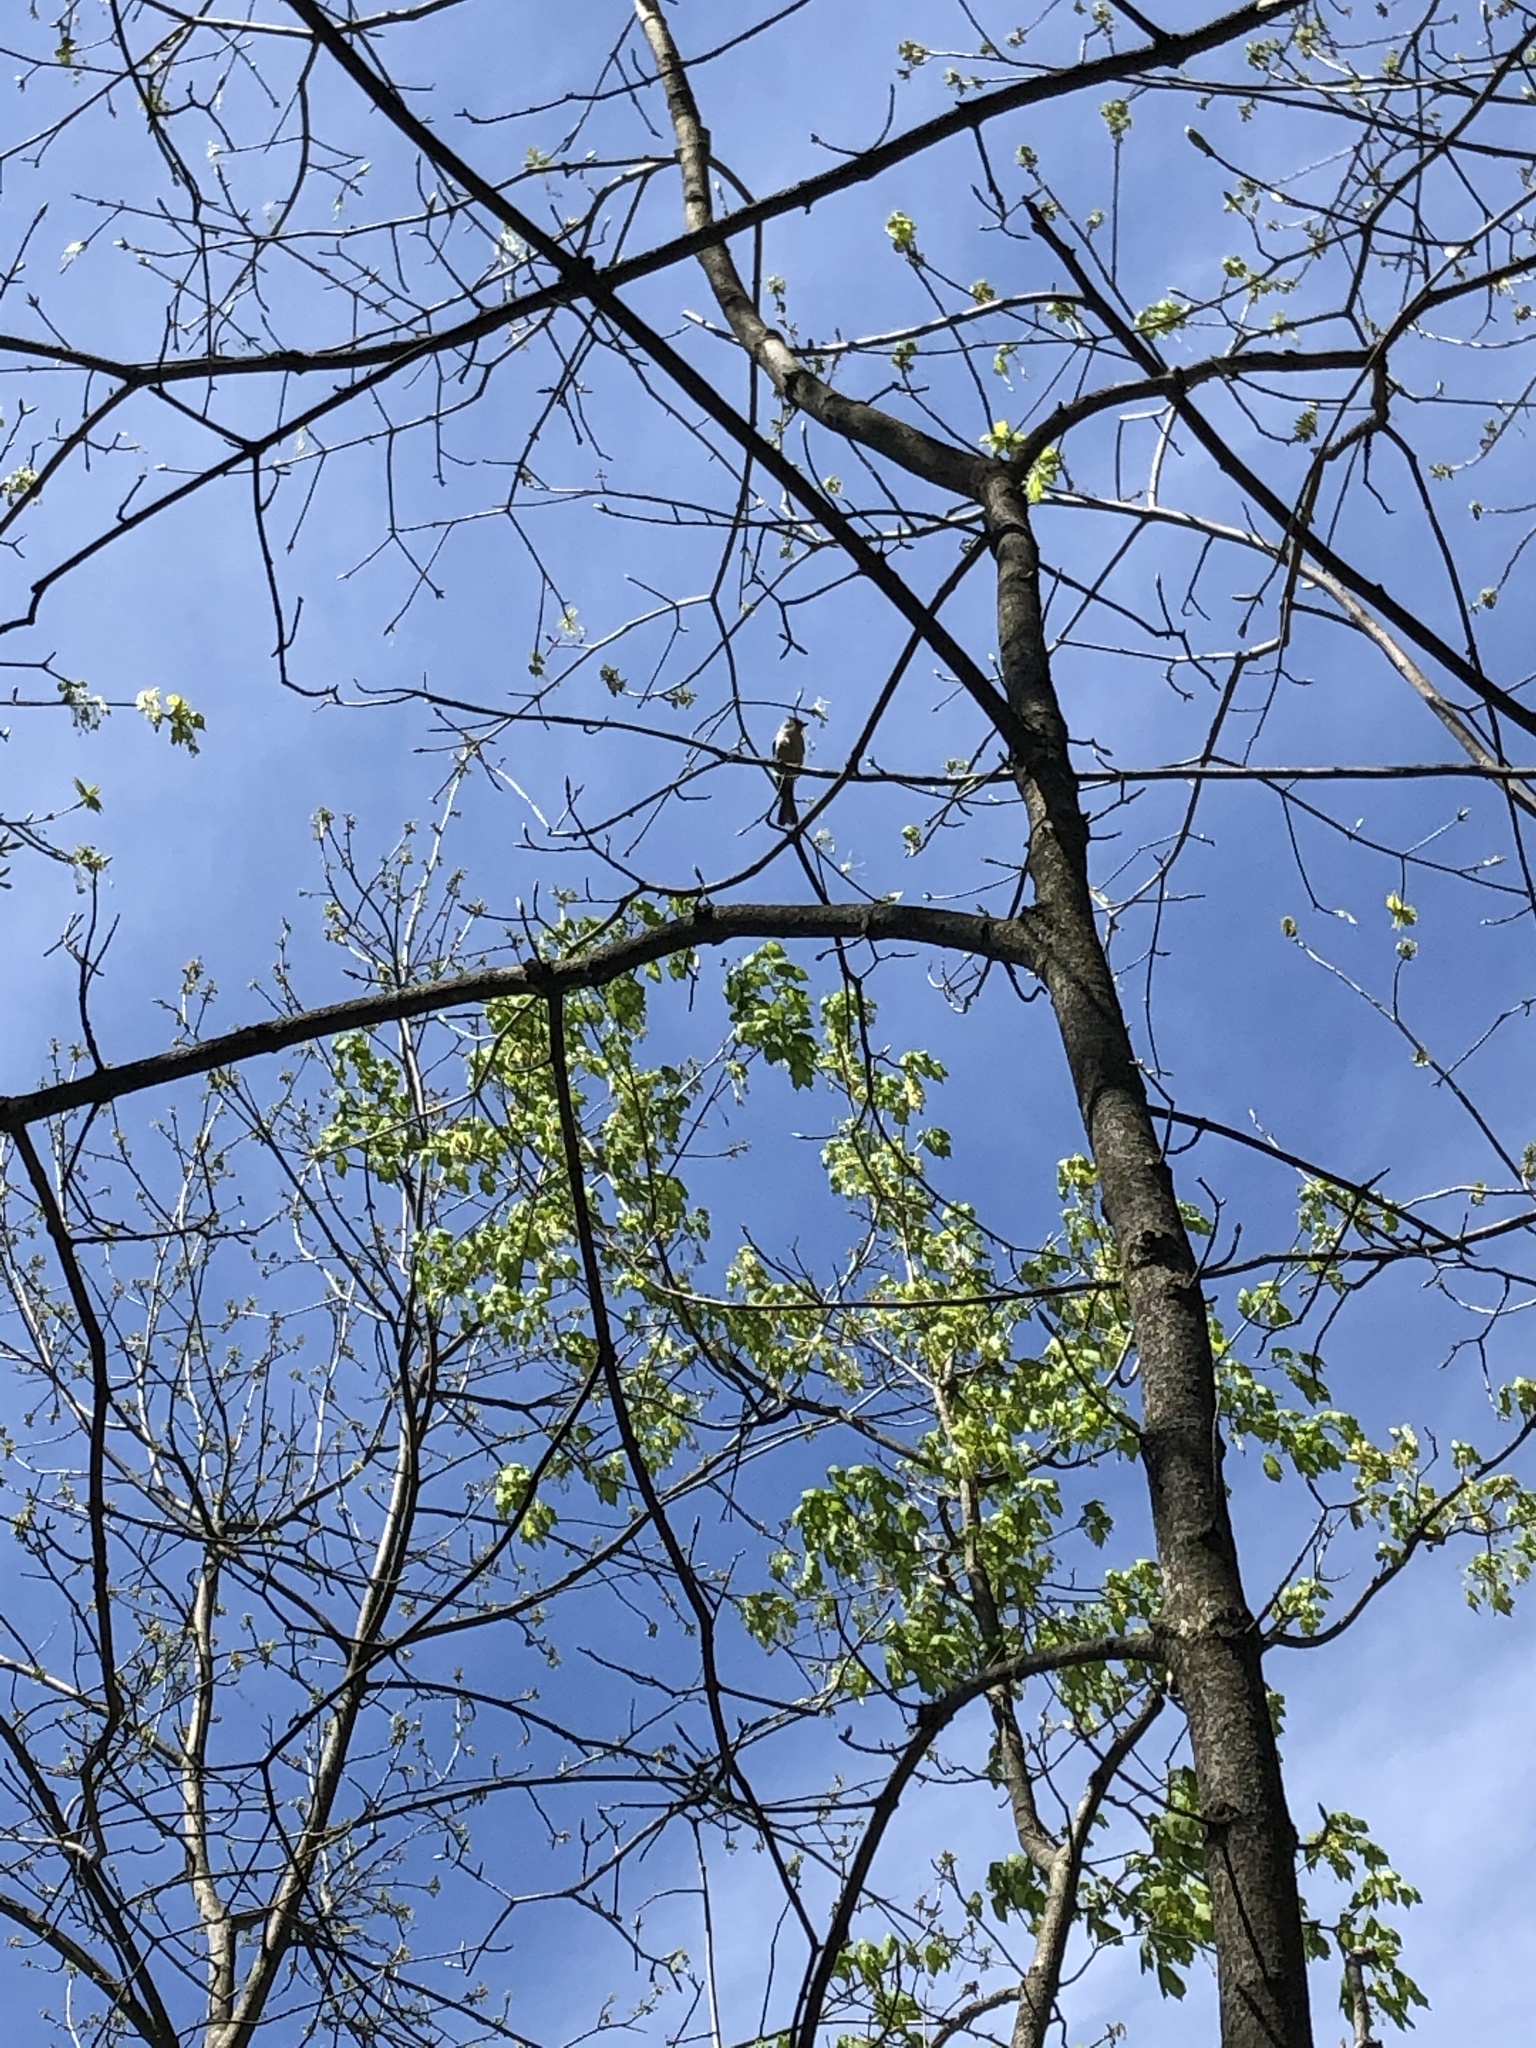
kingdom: Animalia
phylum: Chordata
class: Aves
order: Passeriformes
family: Paridae
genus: Baeolophus
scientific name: Baeolophus bicolor
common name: Tufted titmouse
